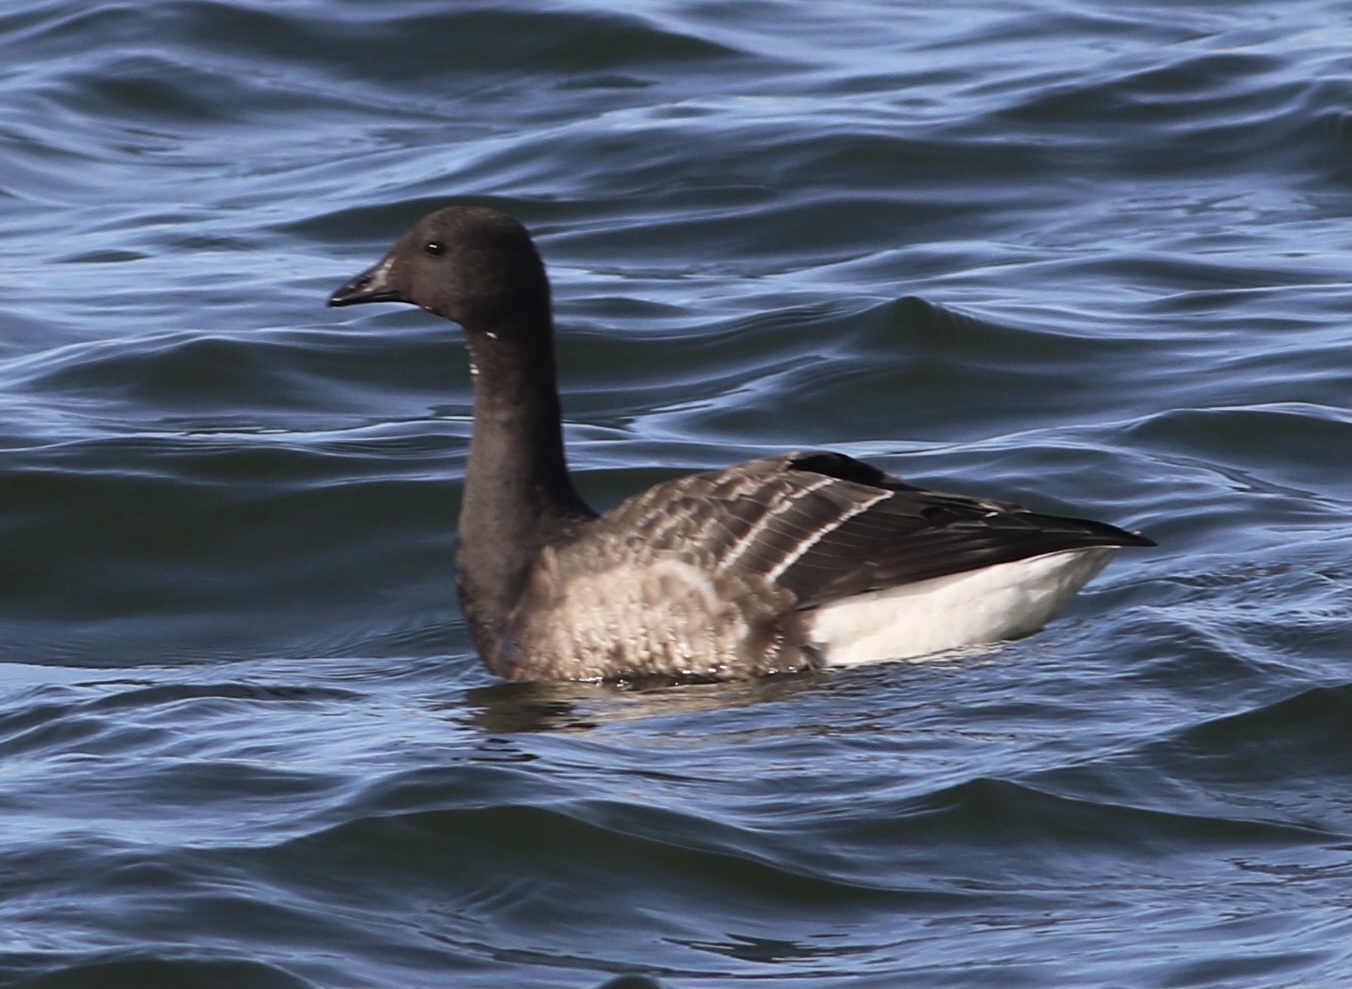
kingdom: Animalia
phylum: Chordata
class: Aves
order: Anseriformes
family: Anatidae
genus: Branta
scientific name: Branta bernicla
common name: Brant goose
